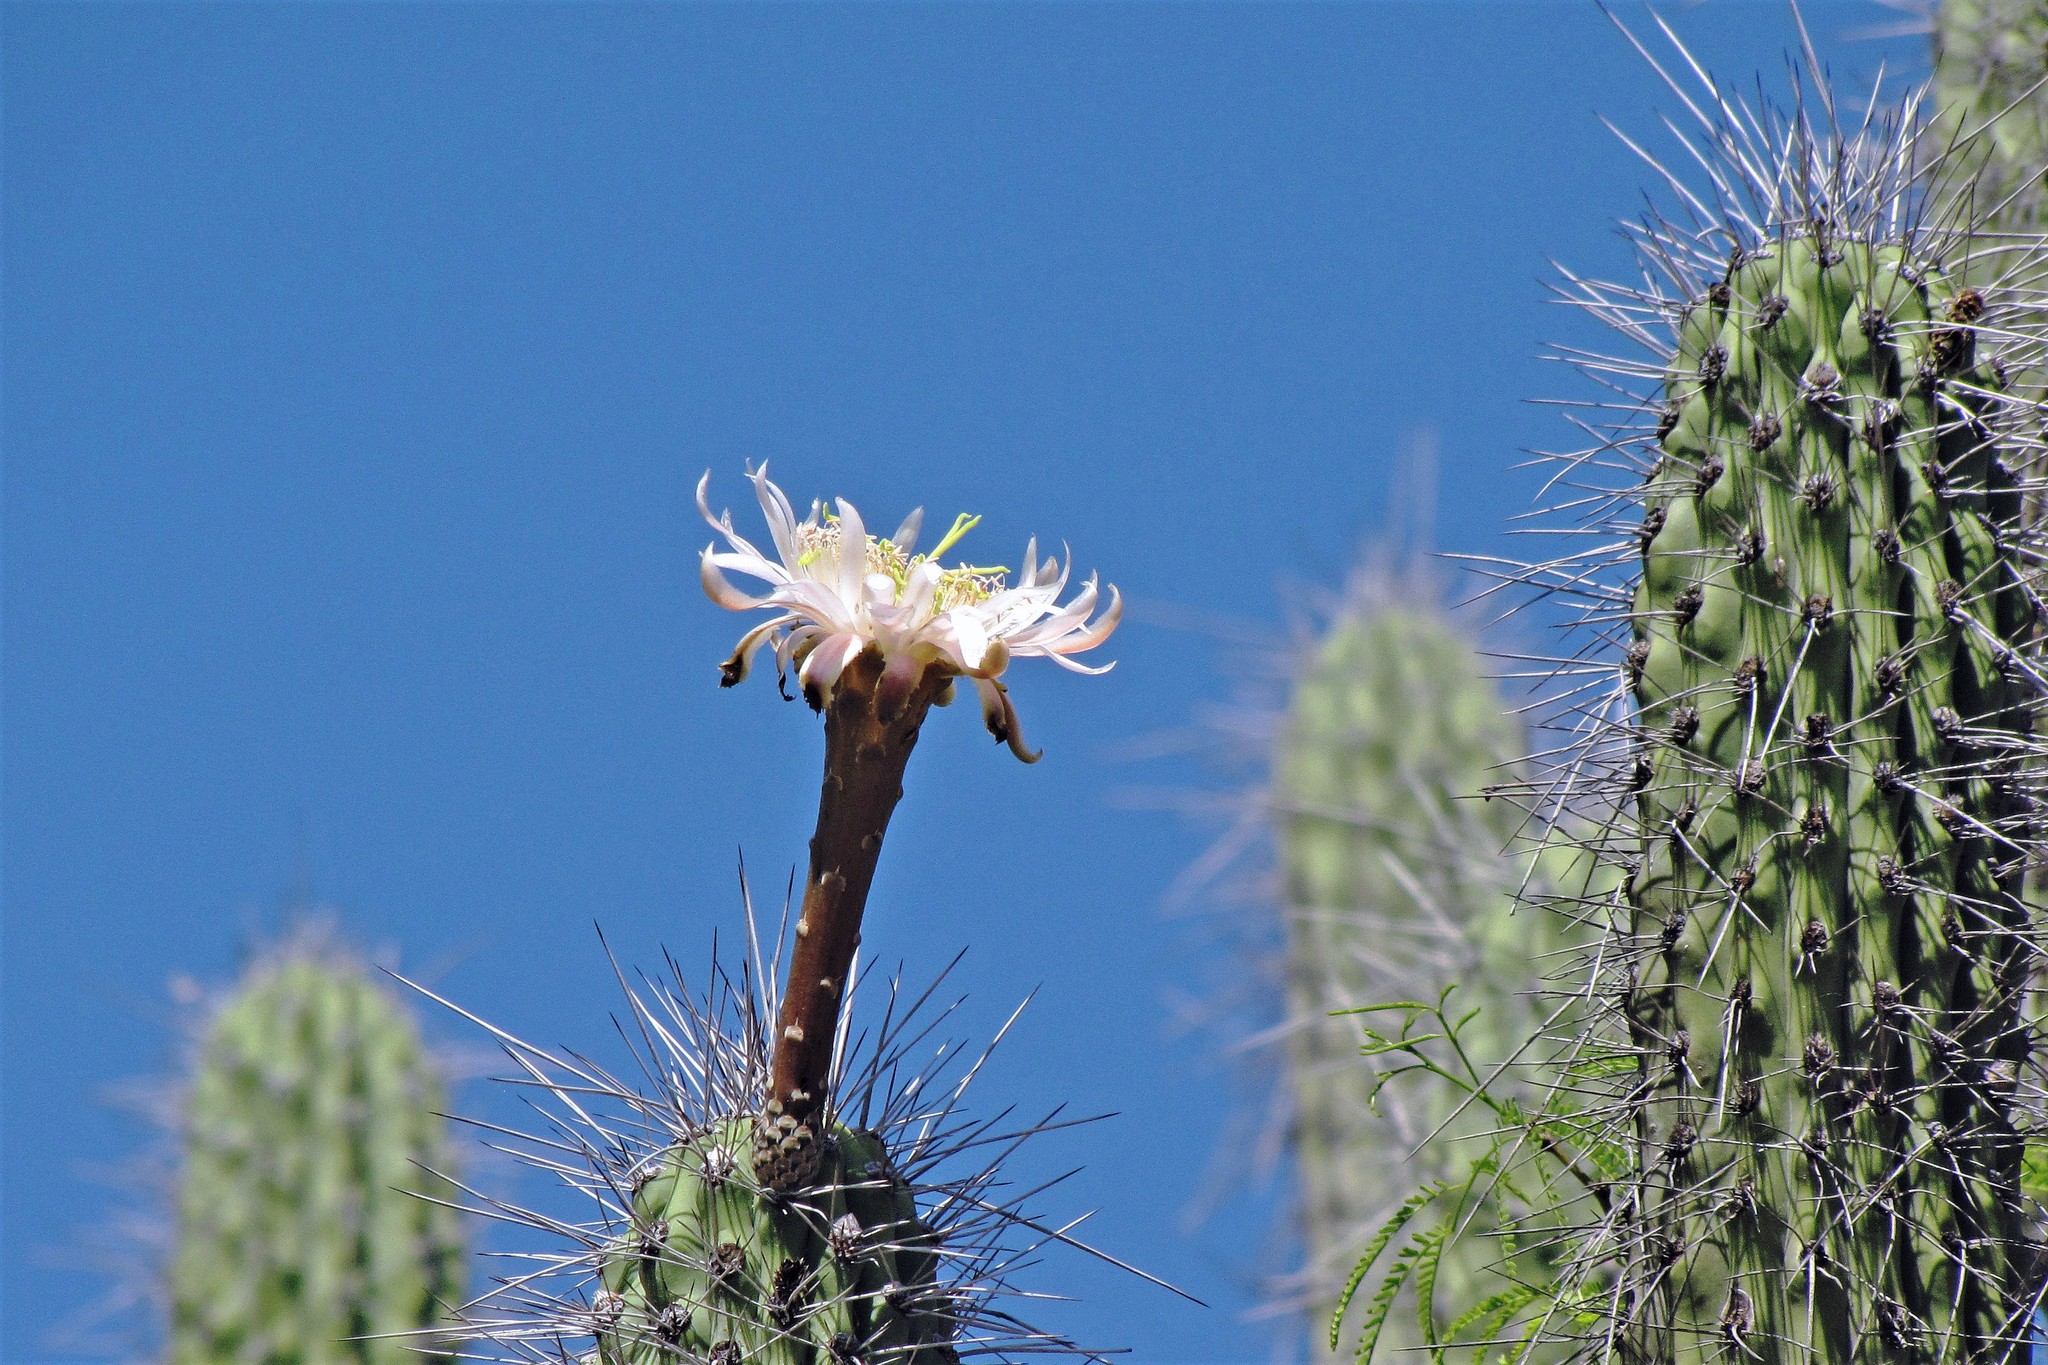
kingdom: Plantae
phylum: Tracheophyta
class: Magnoliopsida
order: Caryophyllales
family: Cactaceae
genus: Stetsonia
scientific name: Stetsonia coryne
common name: Toothpick cactus
